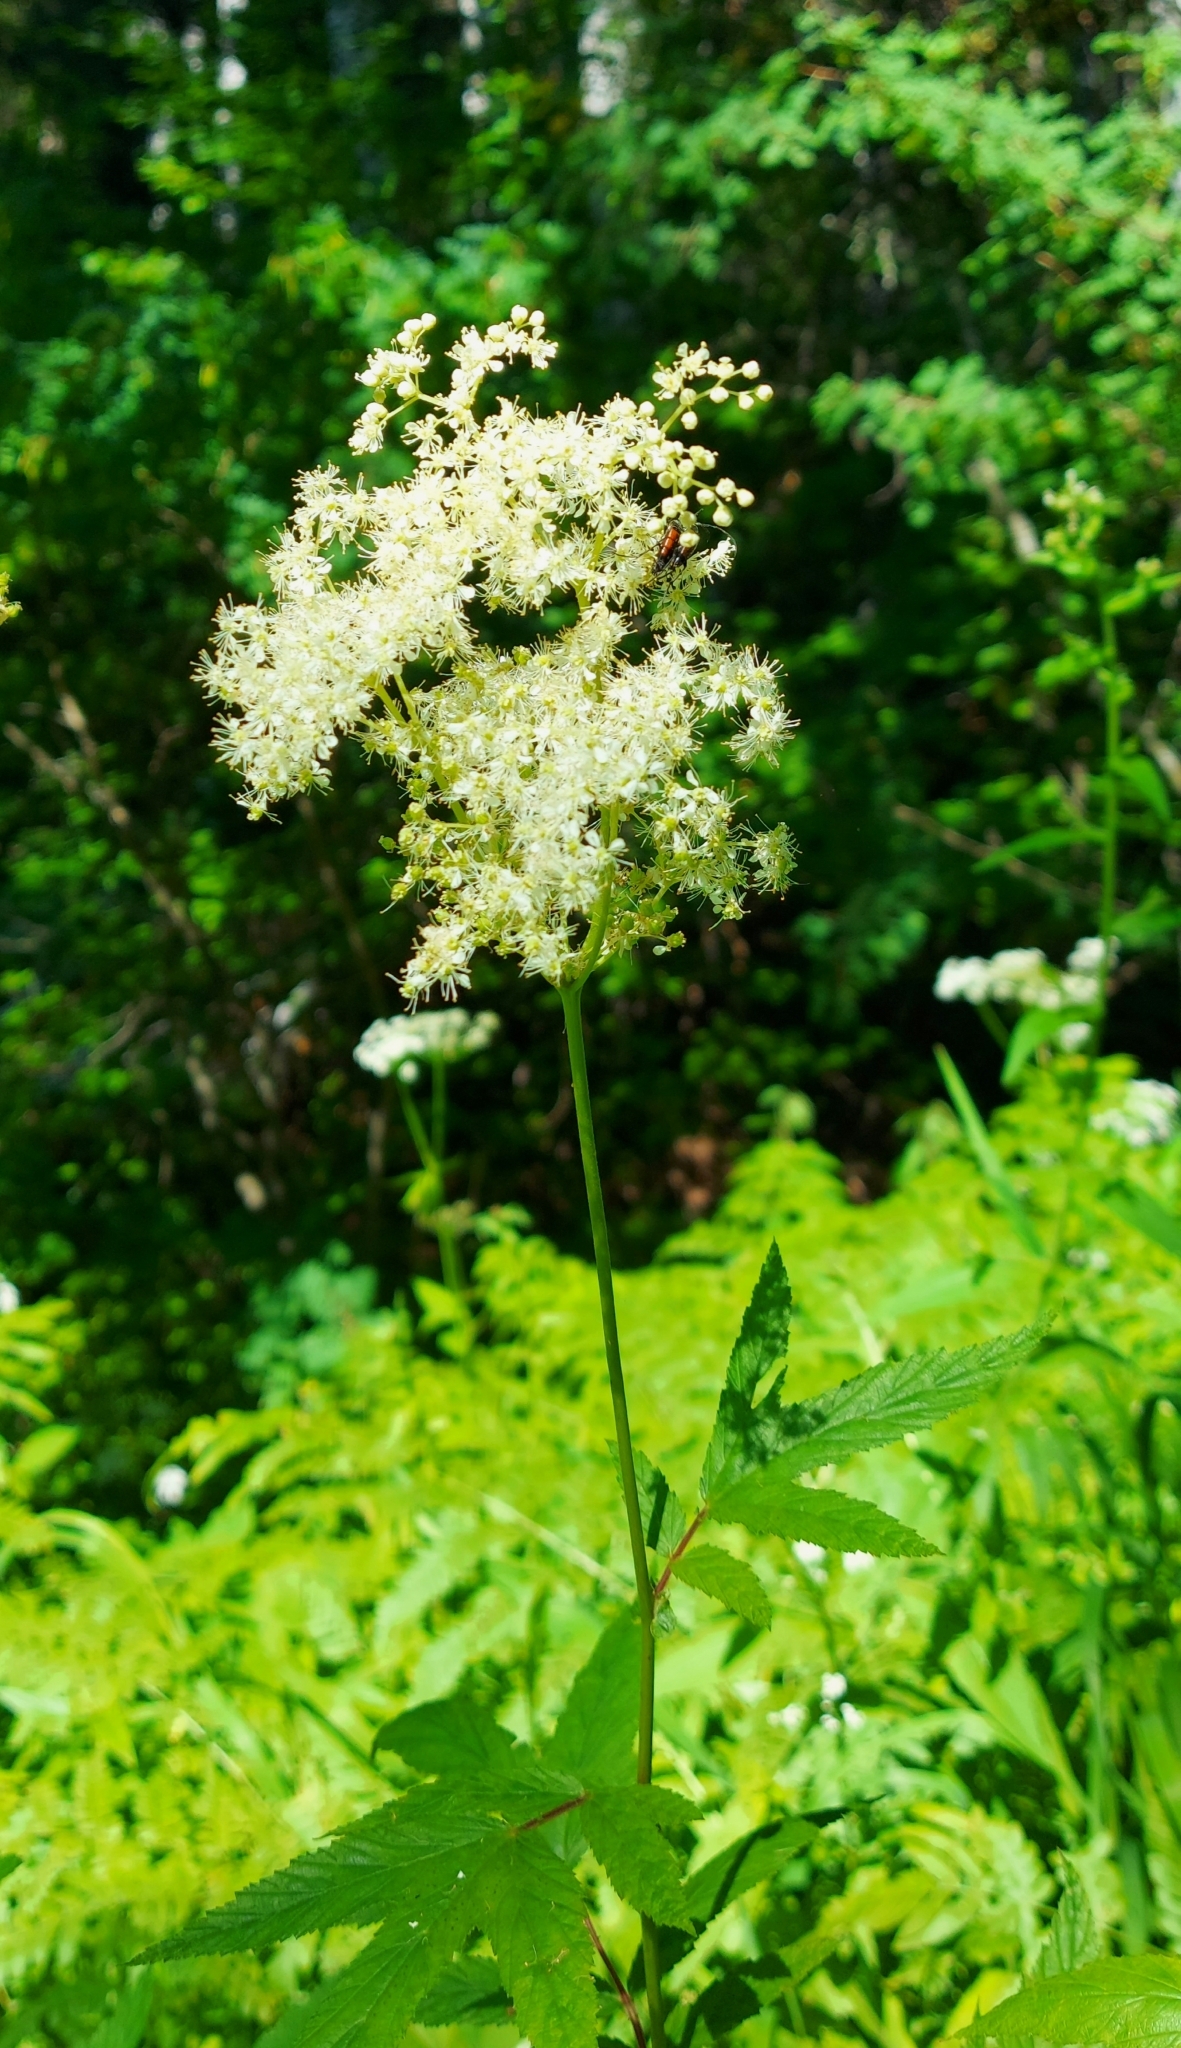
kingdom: Plantae
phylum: Tracheophyta
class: Magnoliopsida
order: Rosales
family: Rosaceae
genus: Filipendula
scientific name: Filipendula ulmaria
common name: Meadowsweet
